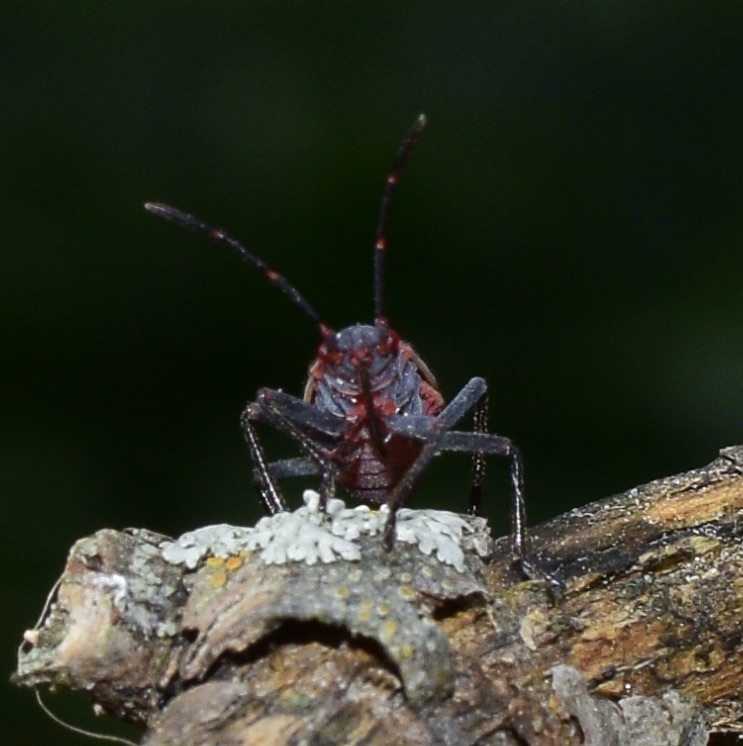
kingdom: Animalia
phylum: Arthropoda
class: Insecta
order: Hemiptera
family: Rhopalidae
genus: Boisea
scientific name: Boisea trivittata
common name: Boxelder bug
